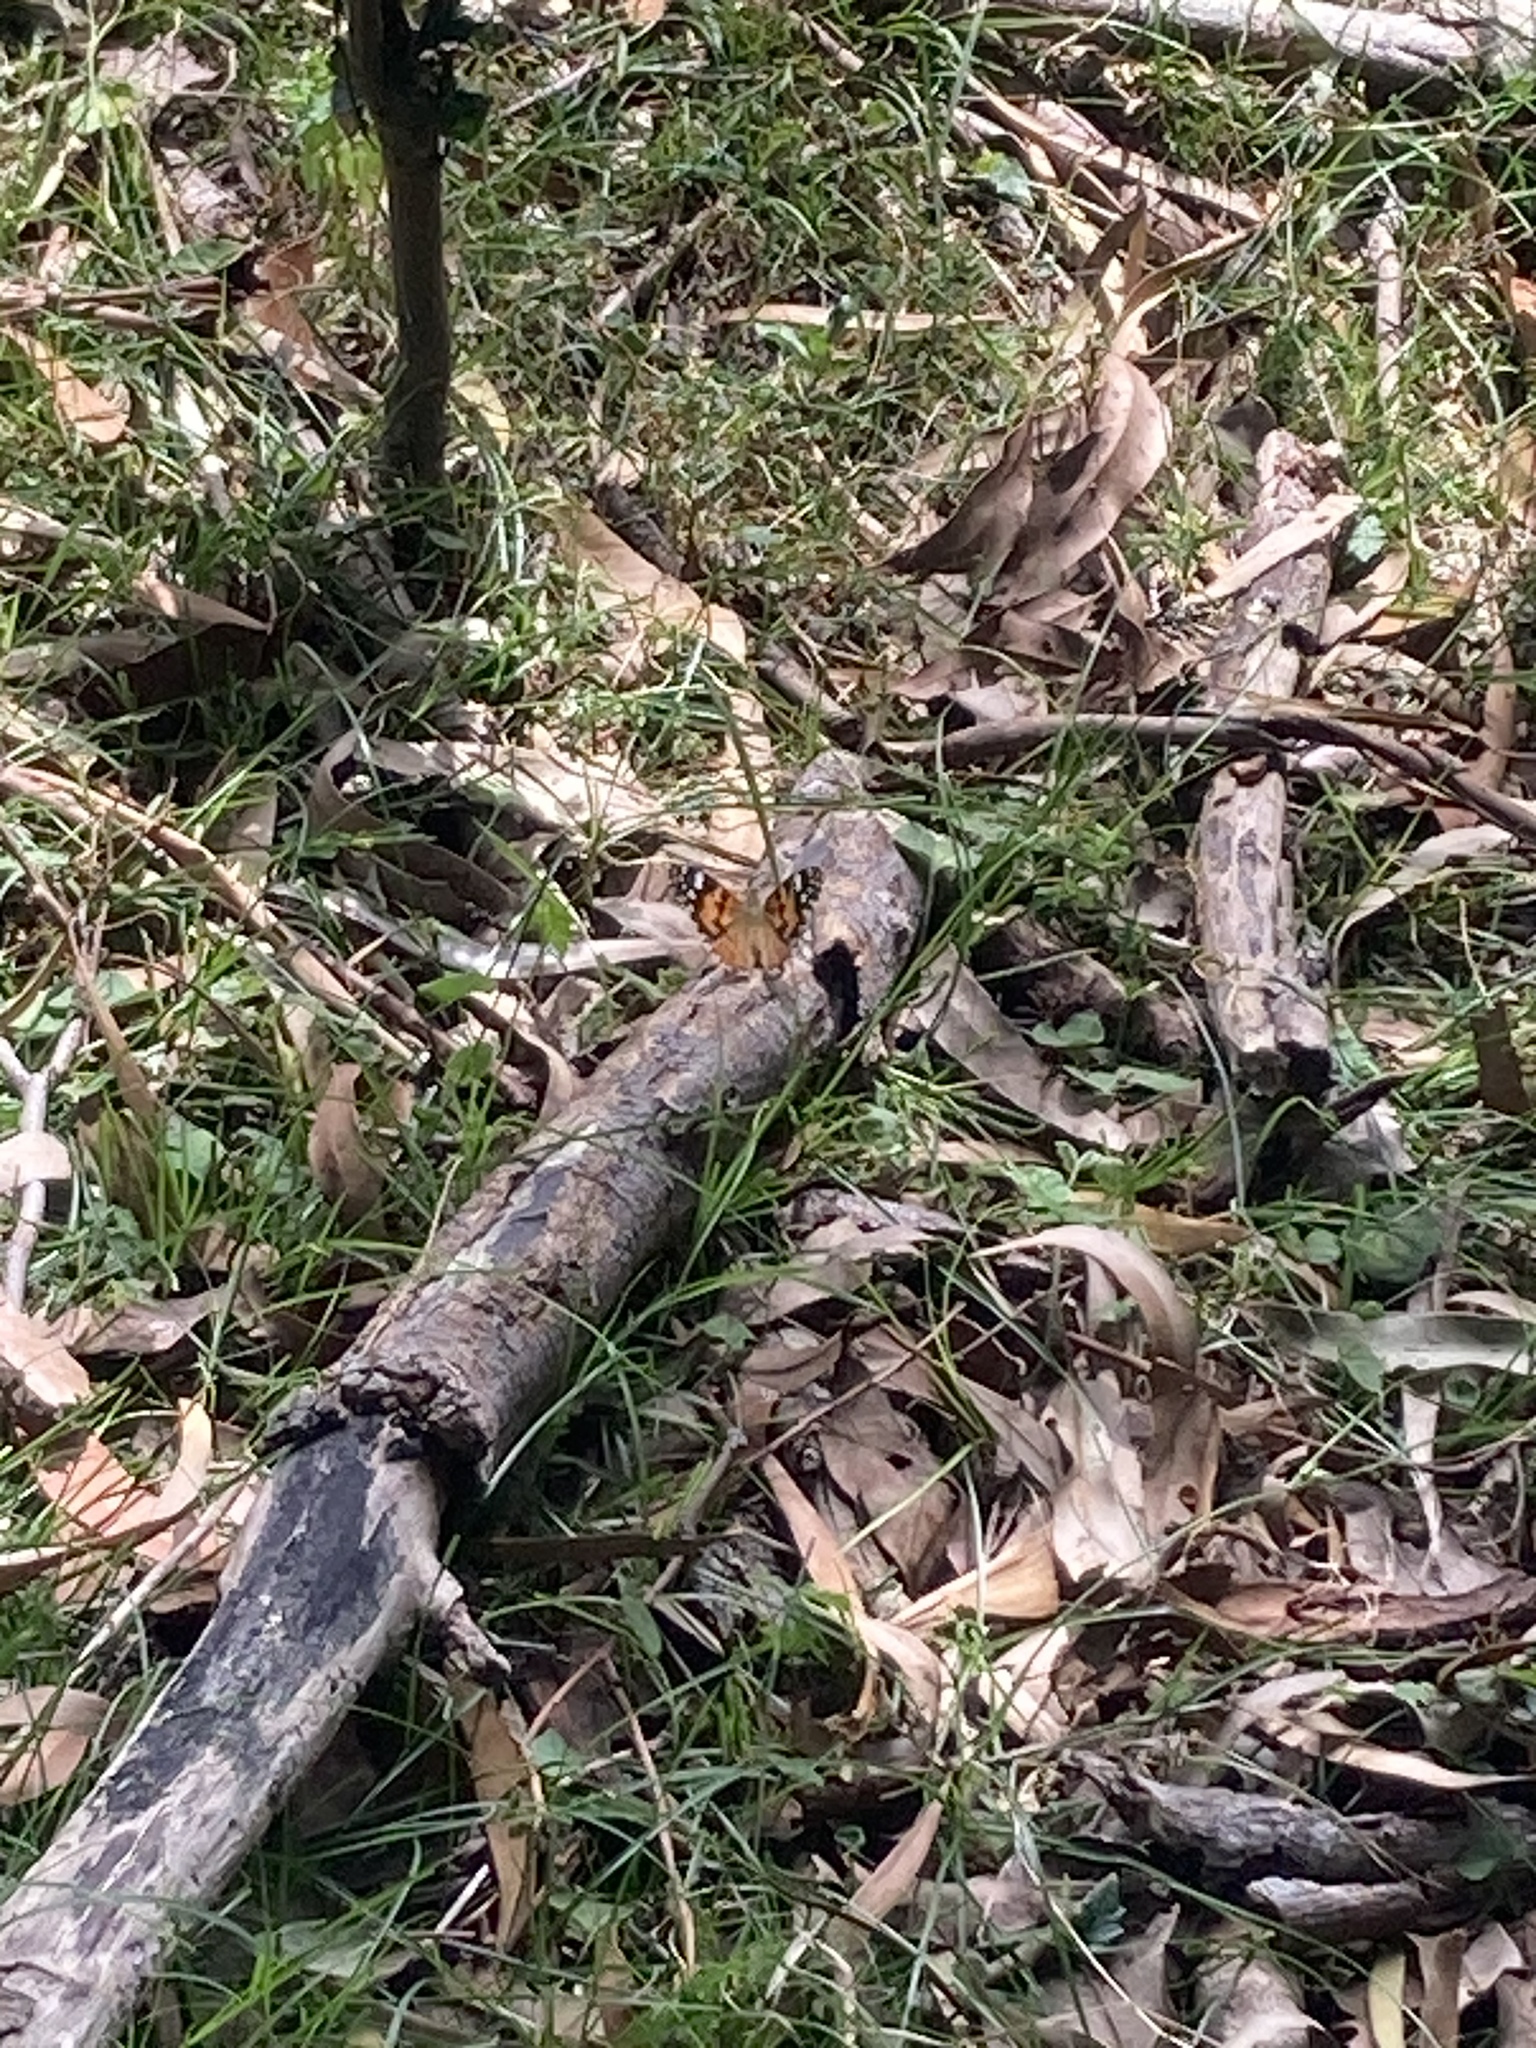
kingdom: Animalia
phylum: Arthropoda
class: Insecta
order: Lepidoptera
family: Nymphalidae
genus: Vanessa
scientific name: Vanessa kershawi
